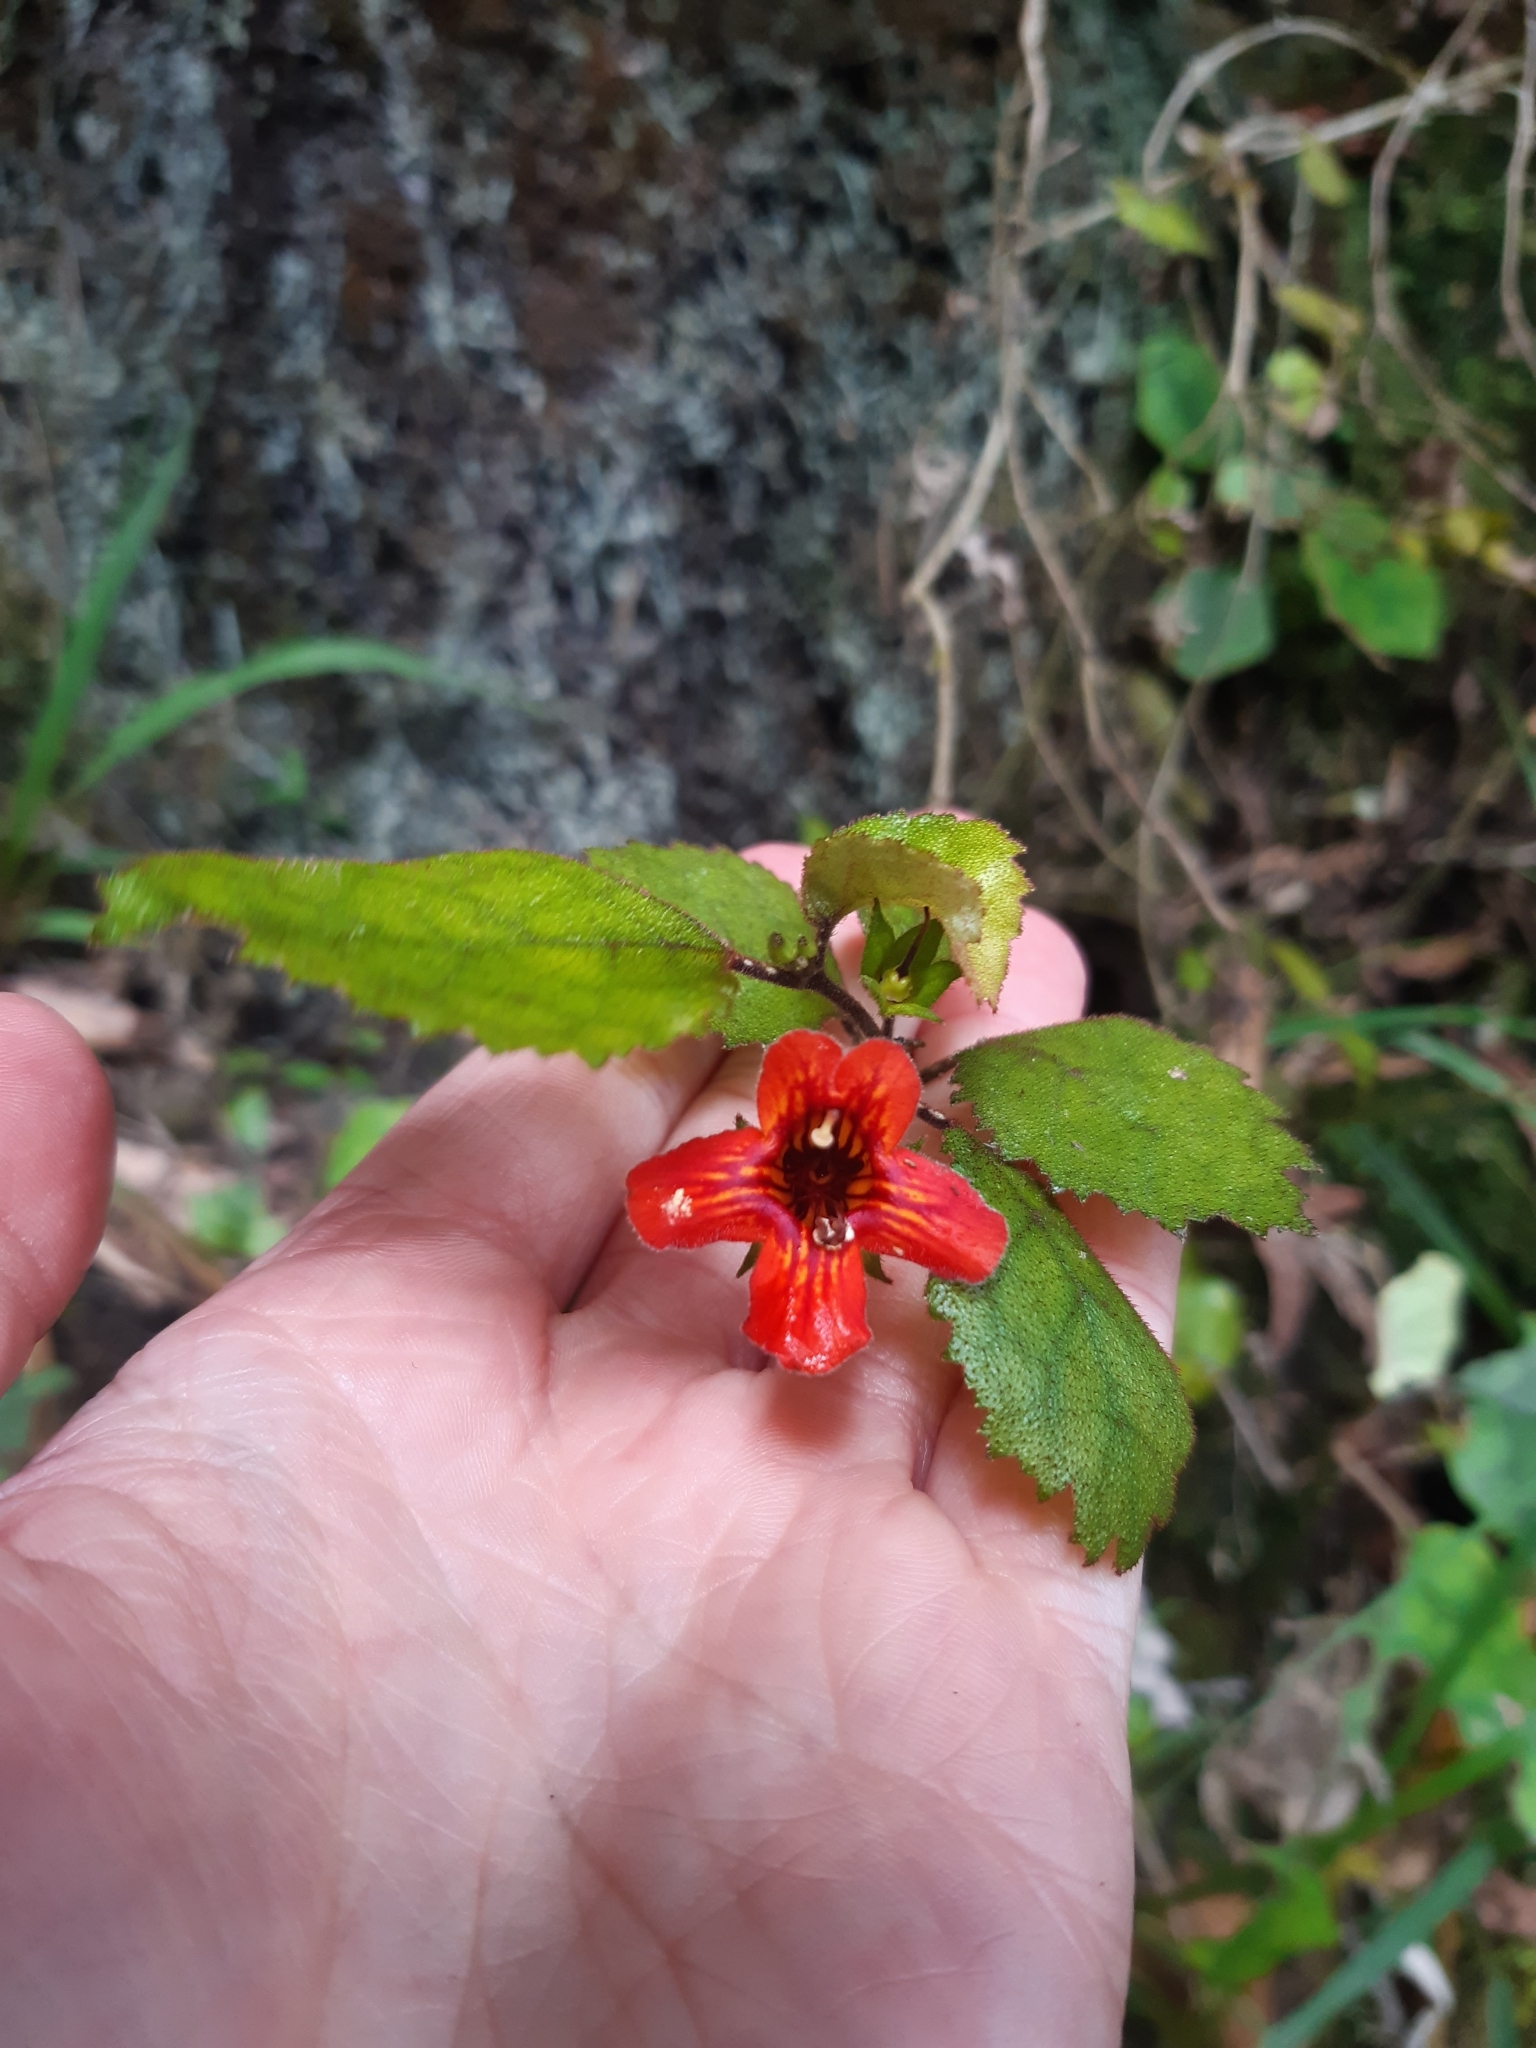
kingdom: Plantae
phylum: Tracheophyta
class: Magnoliopsida
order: Lamiales
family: Gesneriaceae
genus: Rhabdothamnus
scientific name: Rhabdothamnus solandri
